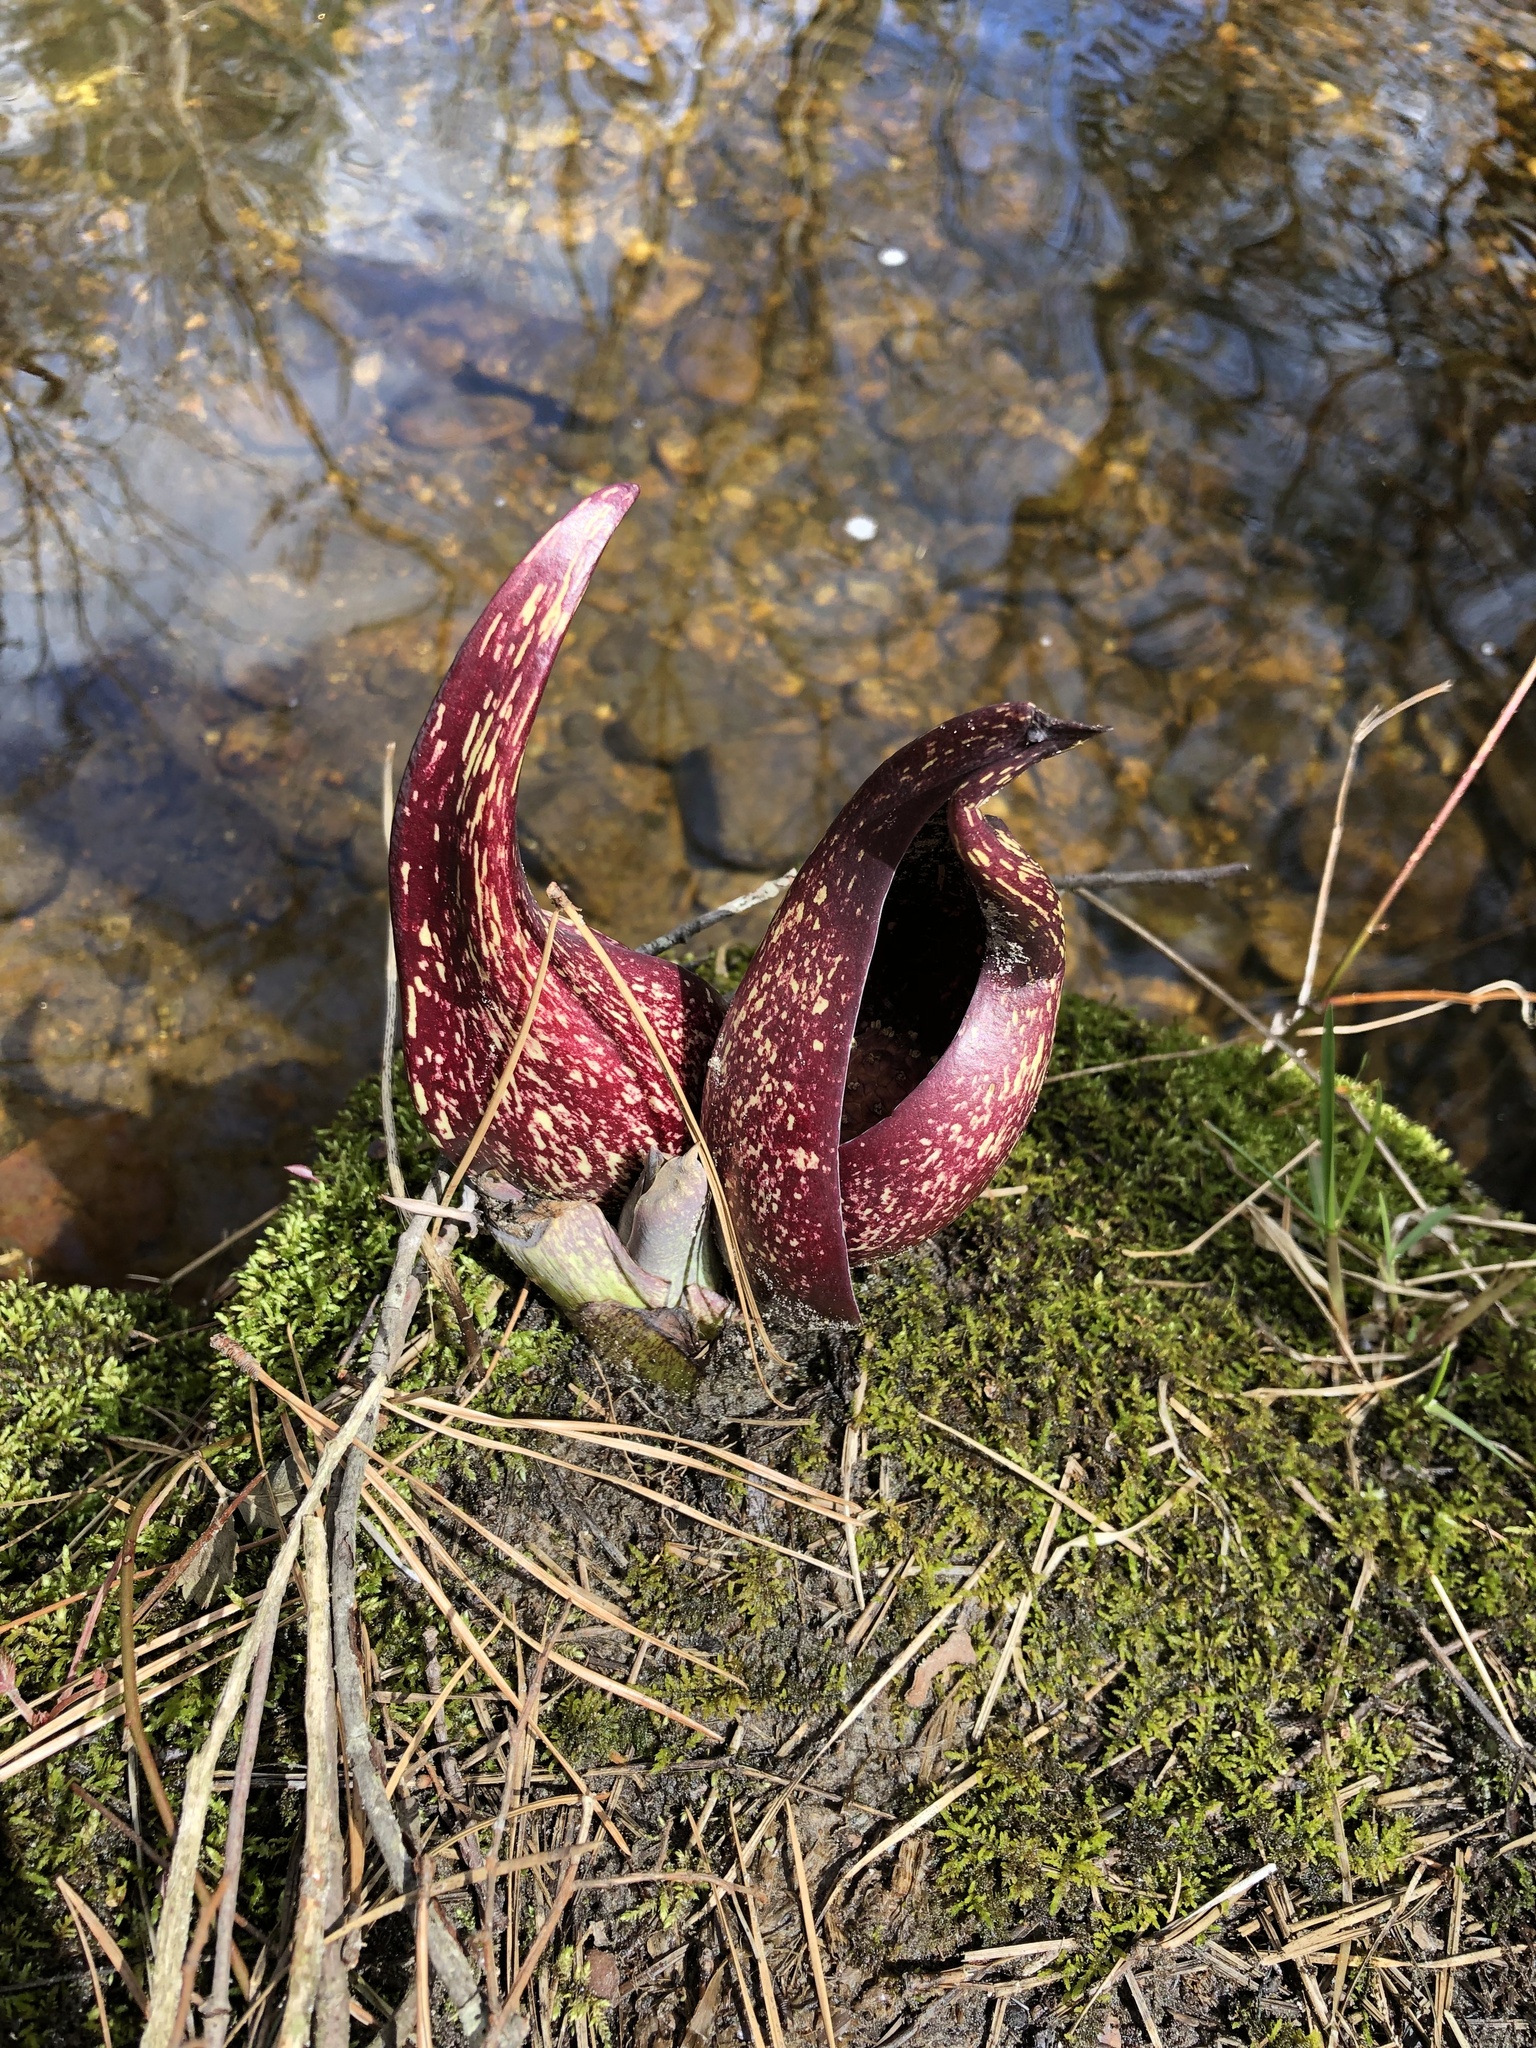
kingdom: Plantae
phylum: Tracheophyta
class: Liliopsida
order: Alismatales
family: Araceae
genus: Symplocarpus
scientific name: Symplocarpus foetidus
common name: Eastern skunk cabbage
